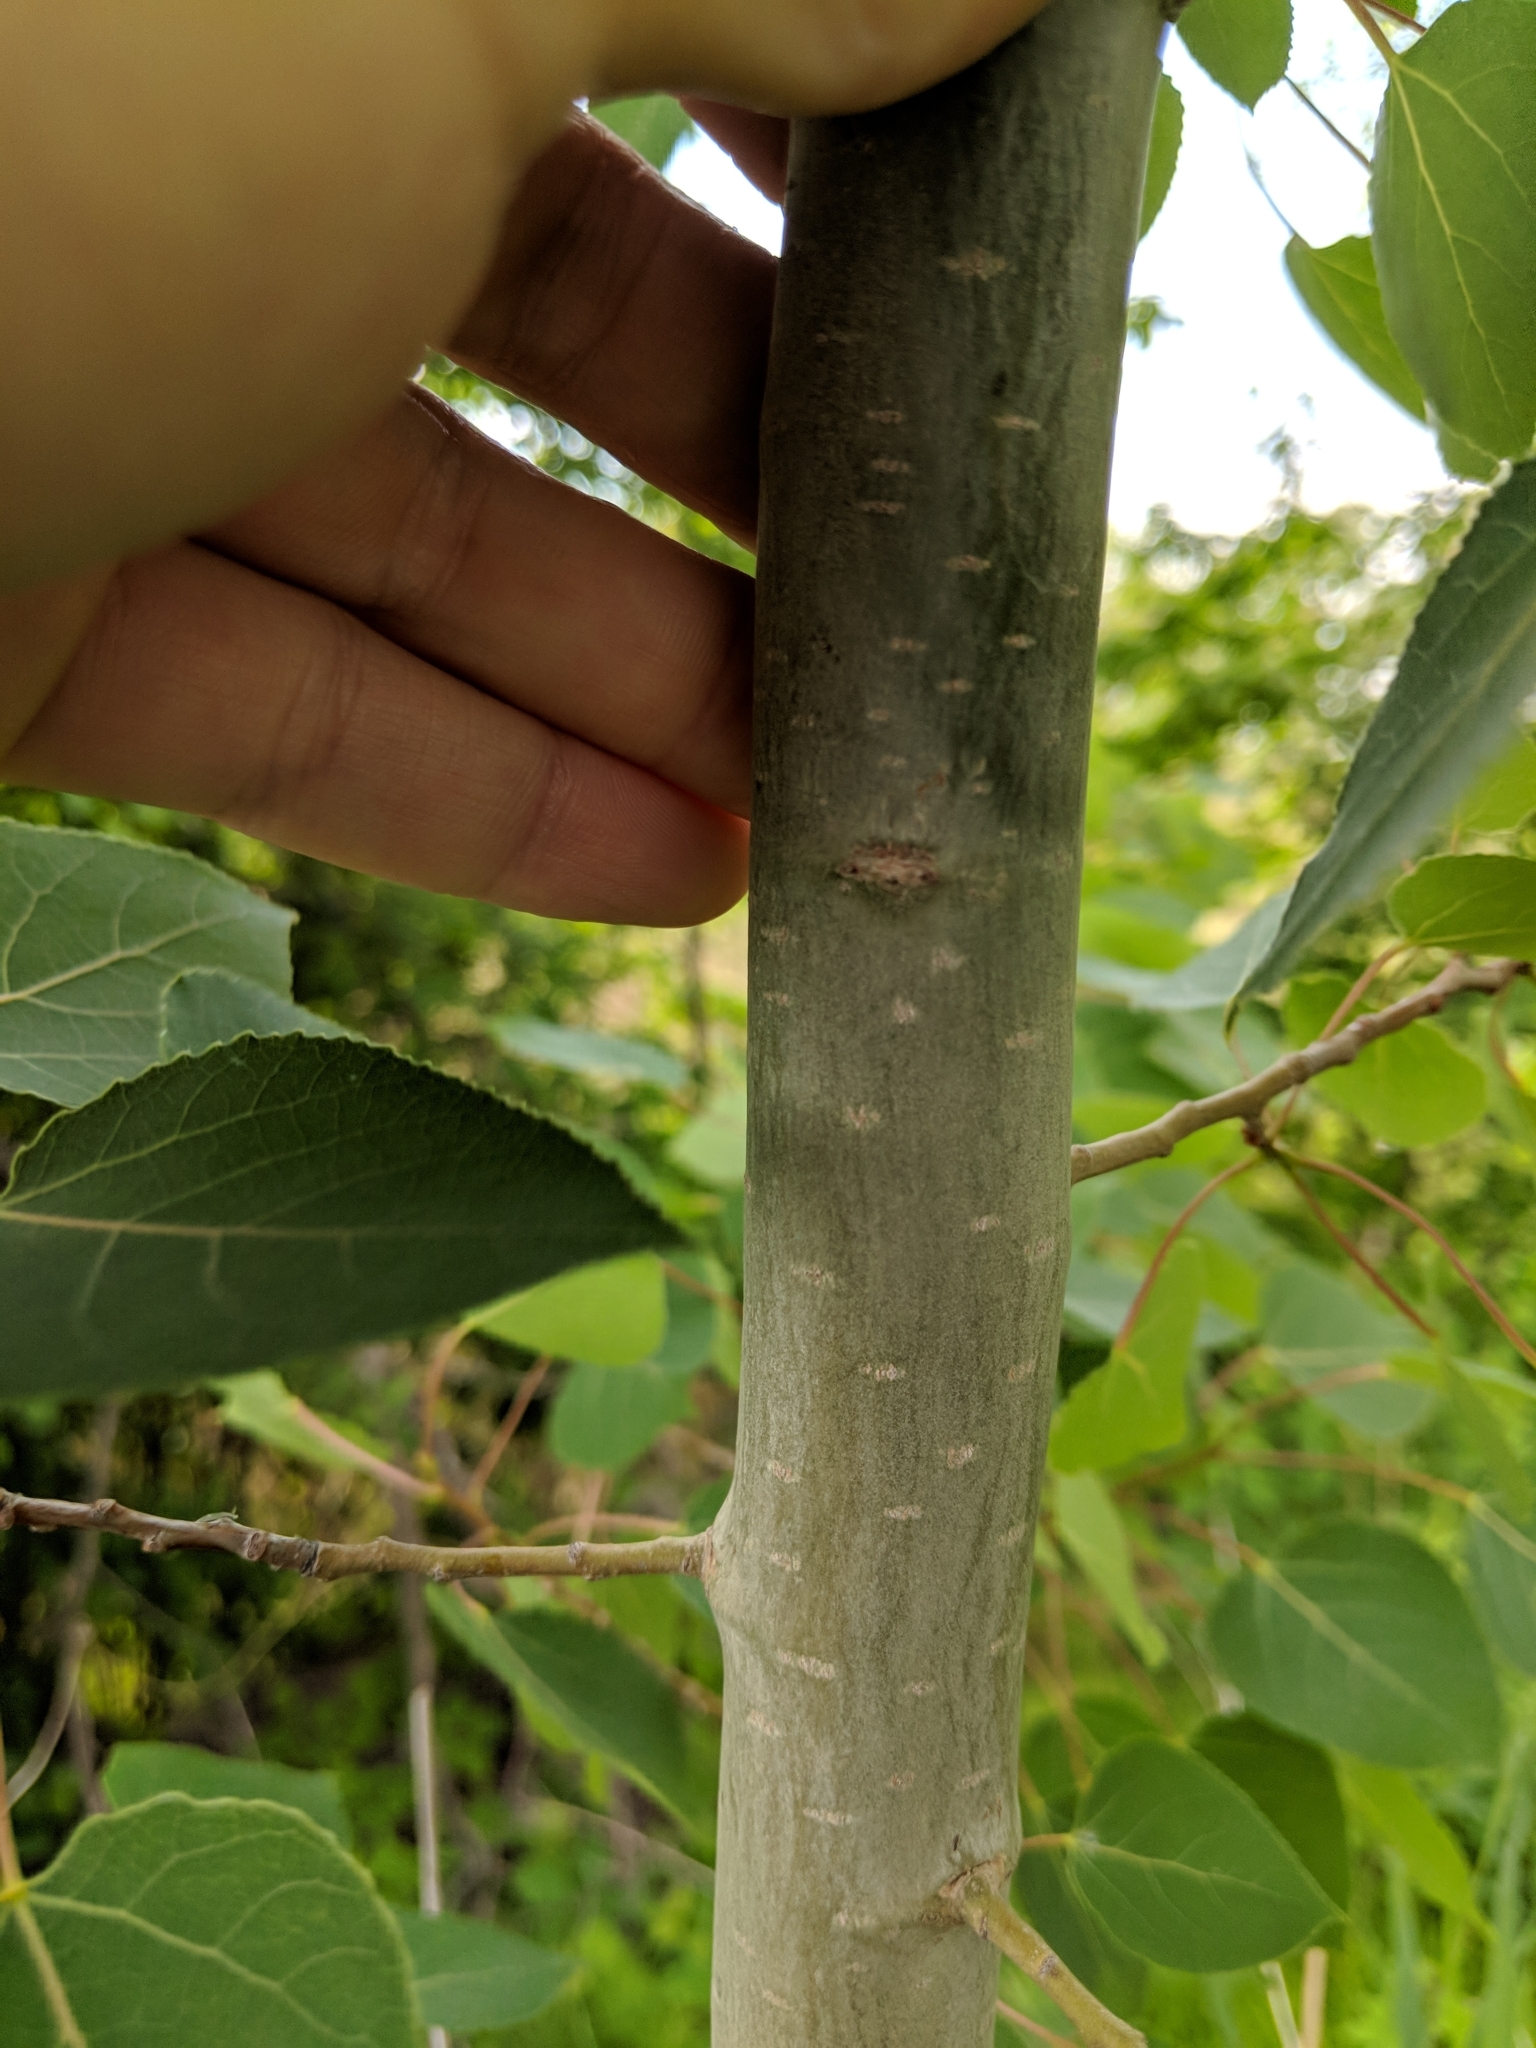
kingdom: Plantae
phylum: Tracheophyta
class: Magnoliopsida
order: Malpighiales
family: Salicaceae
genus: Populus
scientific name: Populus tremuloides
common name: Quaking aspen
